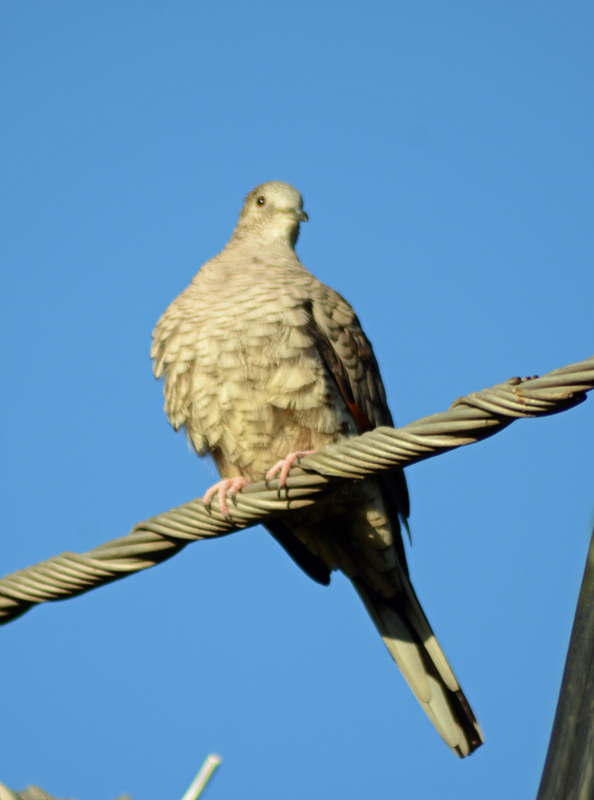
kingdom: Animalia
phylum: Chordata
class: Aves
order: Columbiformes
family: Columbidae
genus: Columbina
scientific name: Columbina inca
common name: Inca dove
